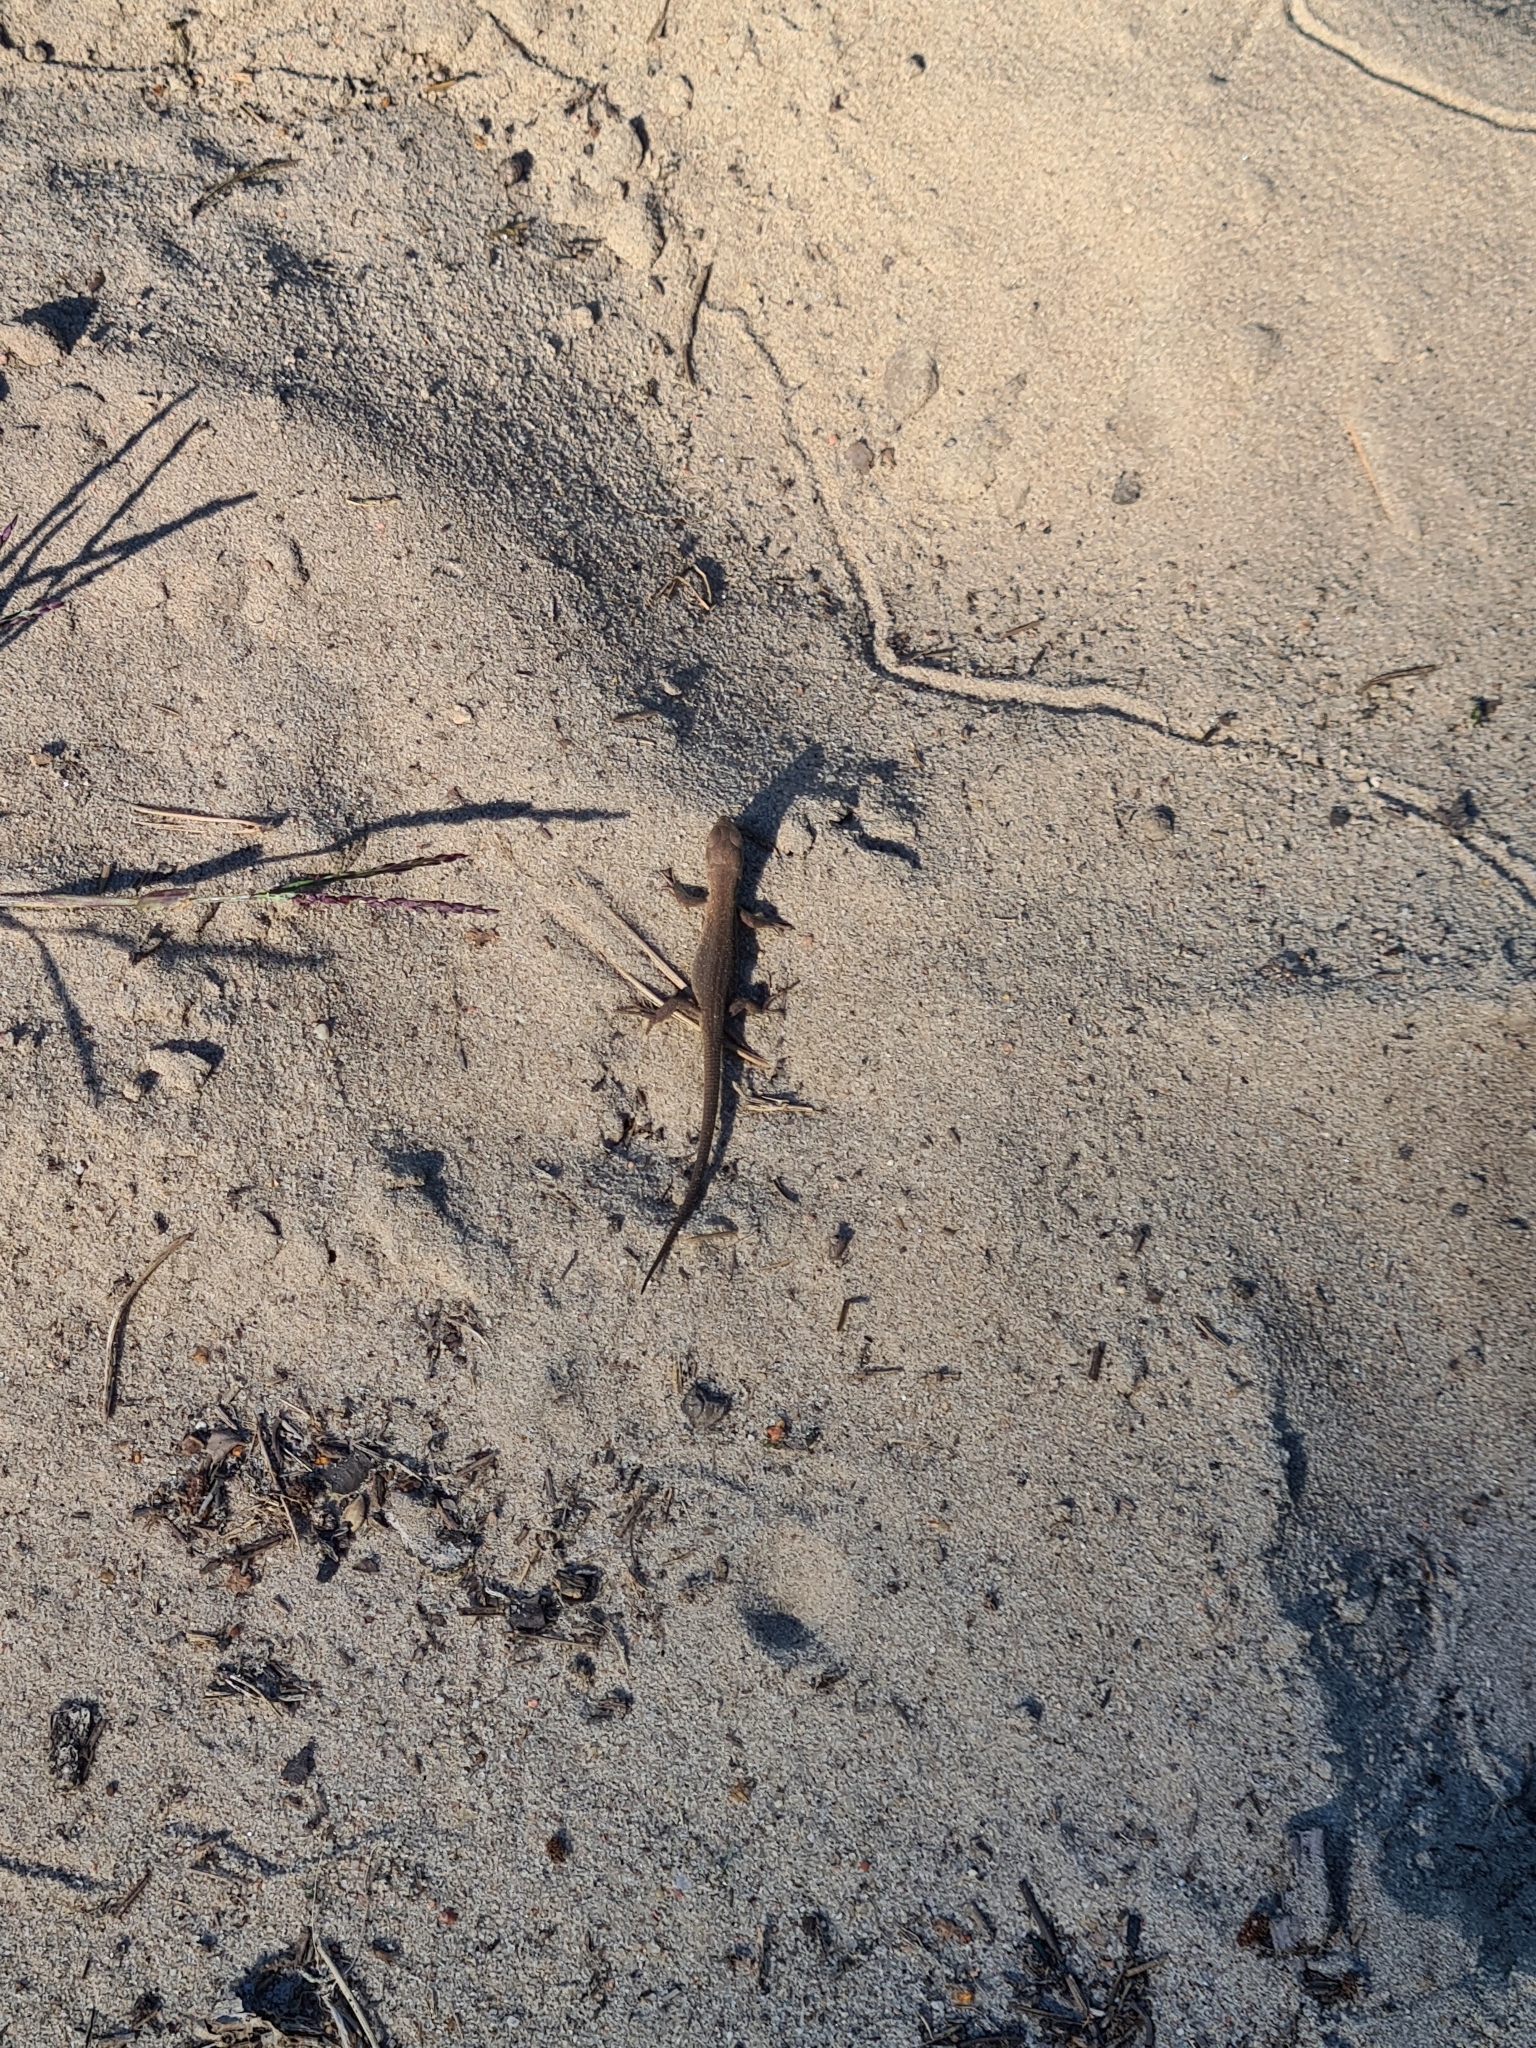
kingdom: Animalia
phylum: Chordata
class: Squamata
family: Lacertidae
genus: Lacerta
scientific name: Lacerta agilis
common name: Sand lizard
